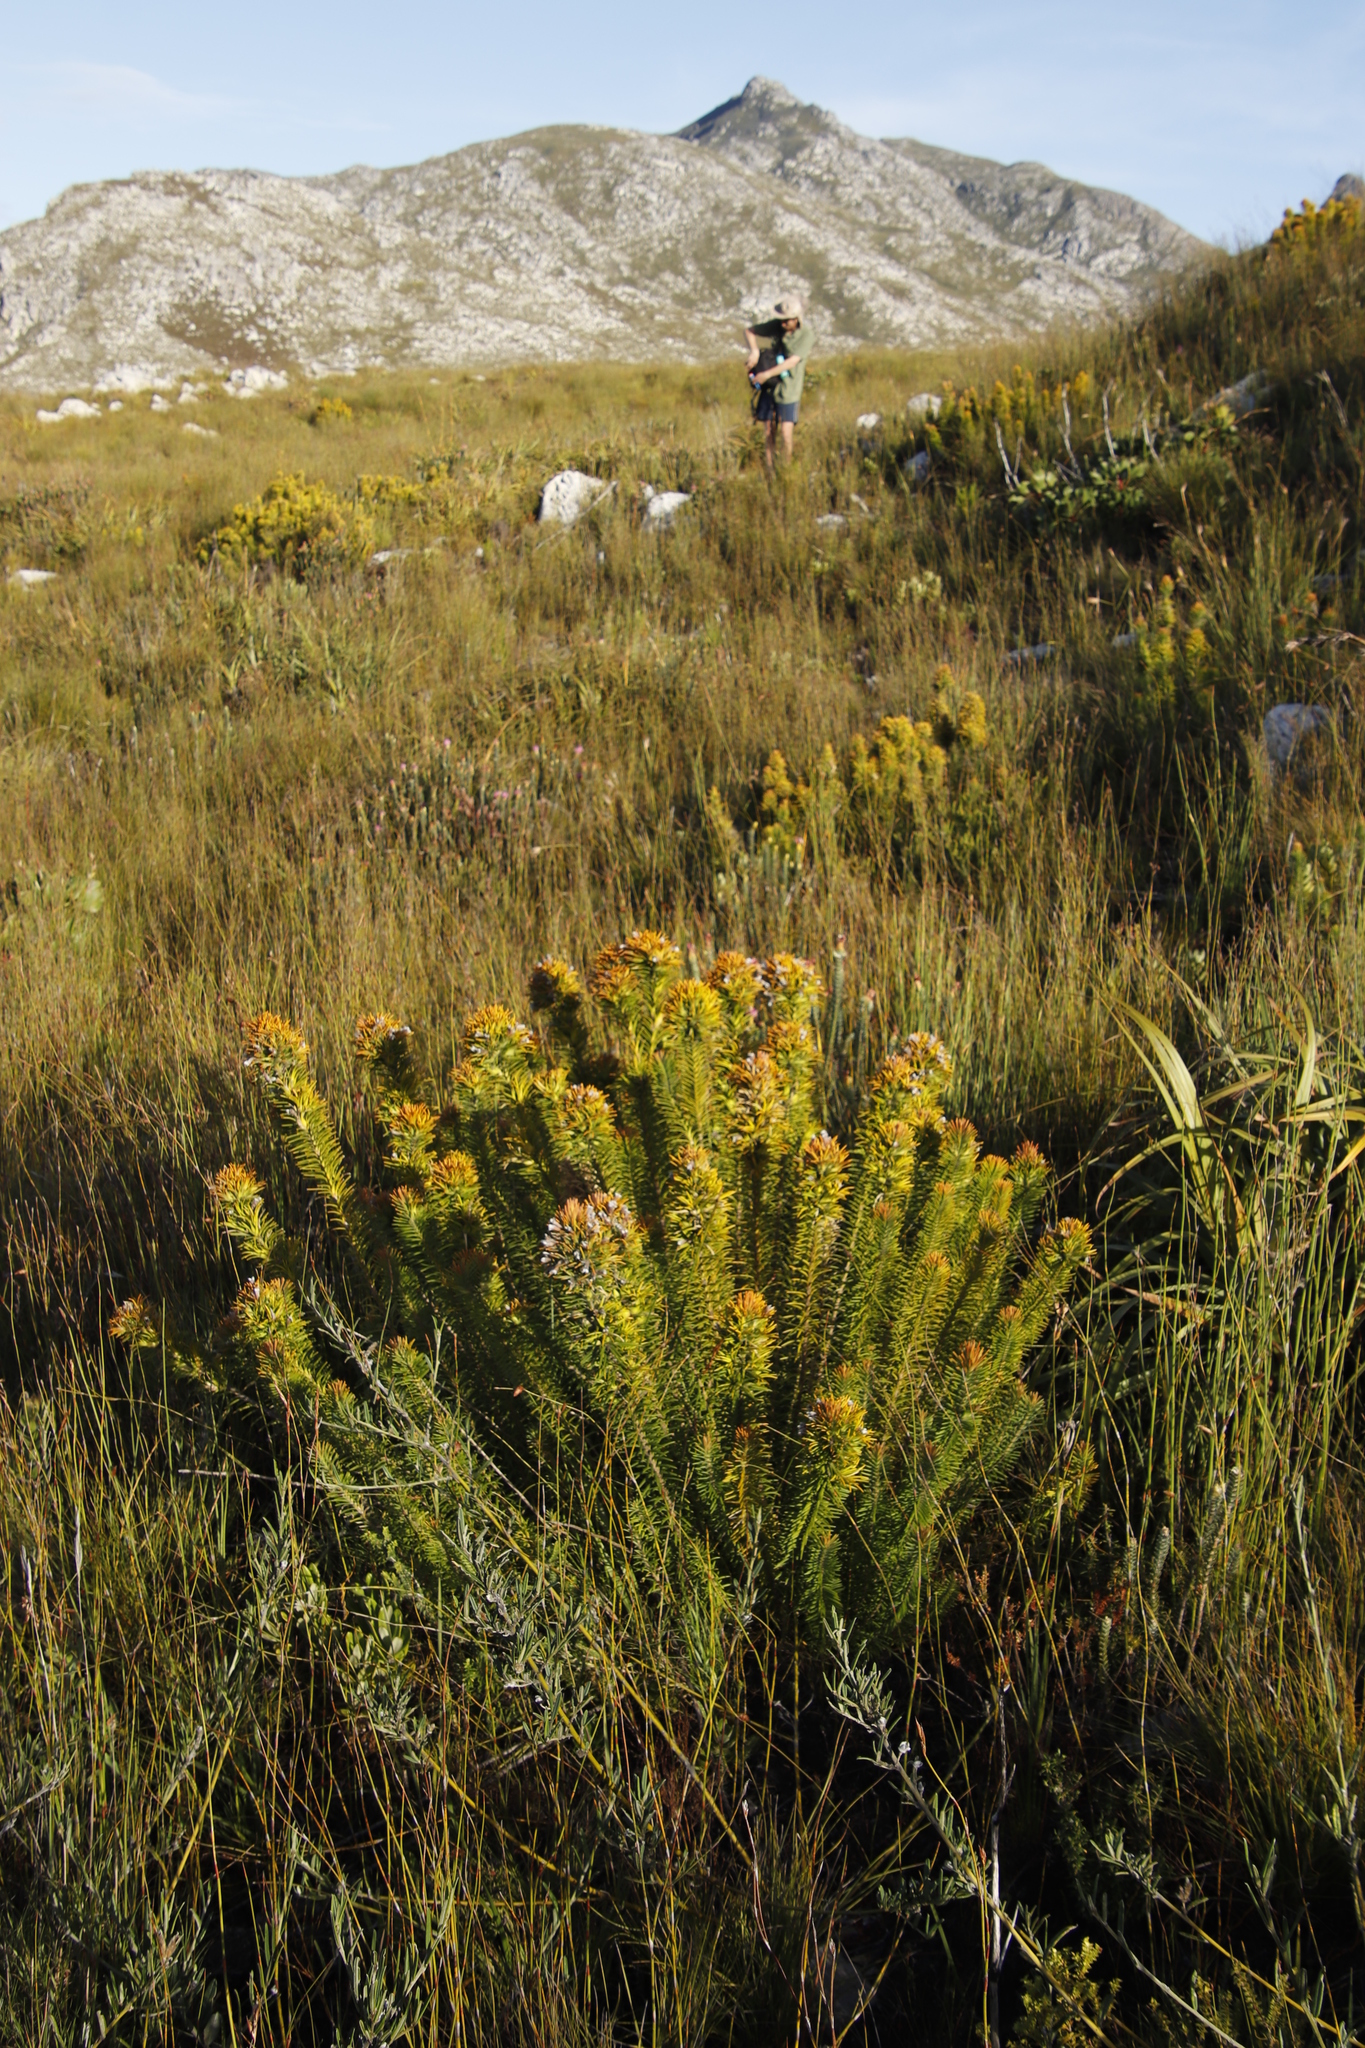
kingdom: Plantae
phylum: Tracheophyta
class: Magnoliopsida
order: Lamiales
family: Stilbaceae
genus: Retzia
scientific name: Retzia capensis
